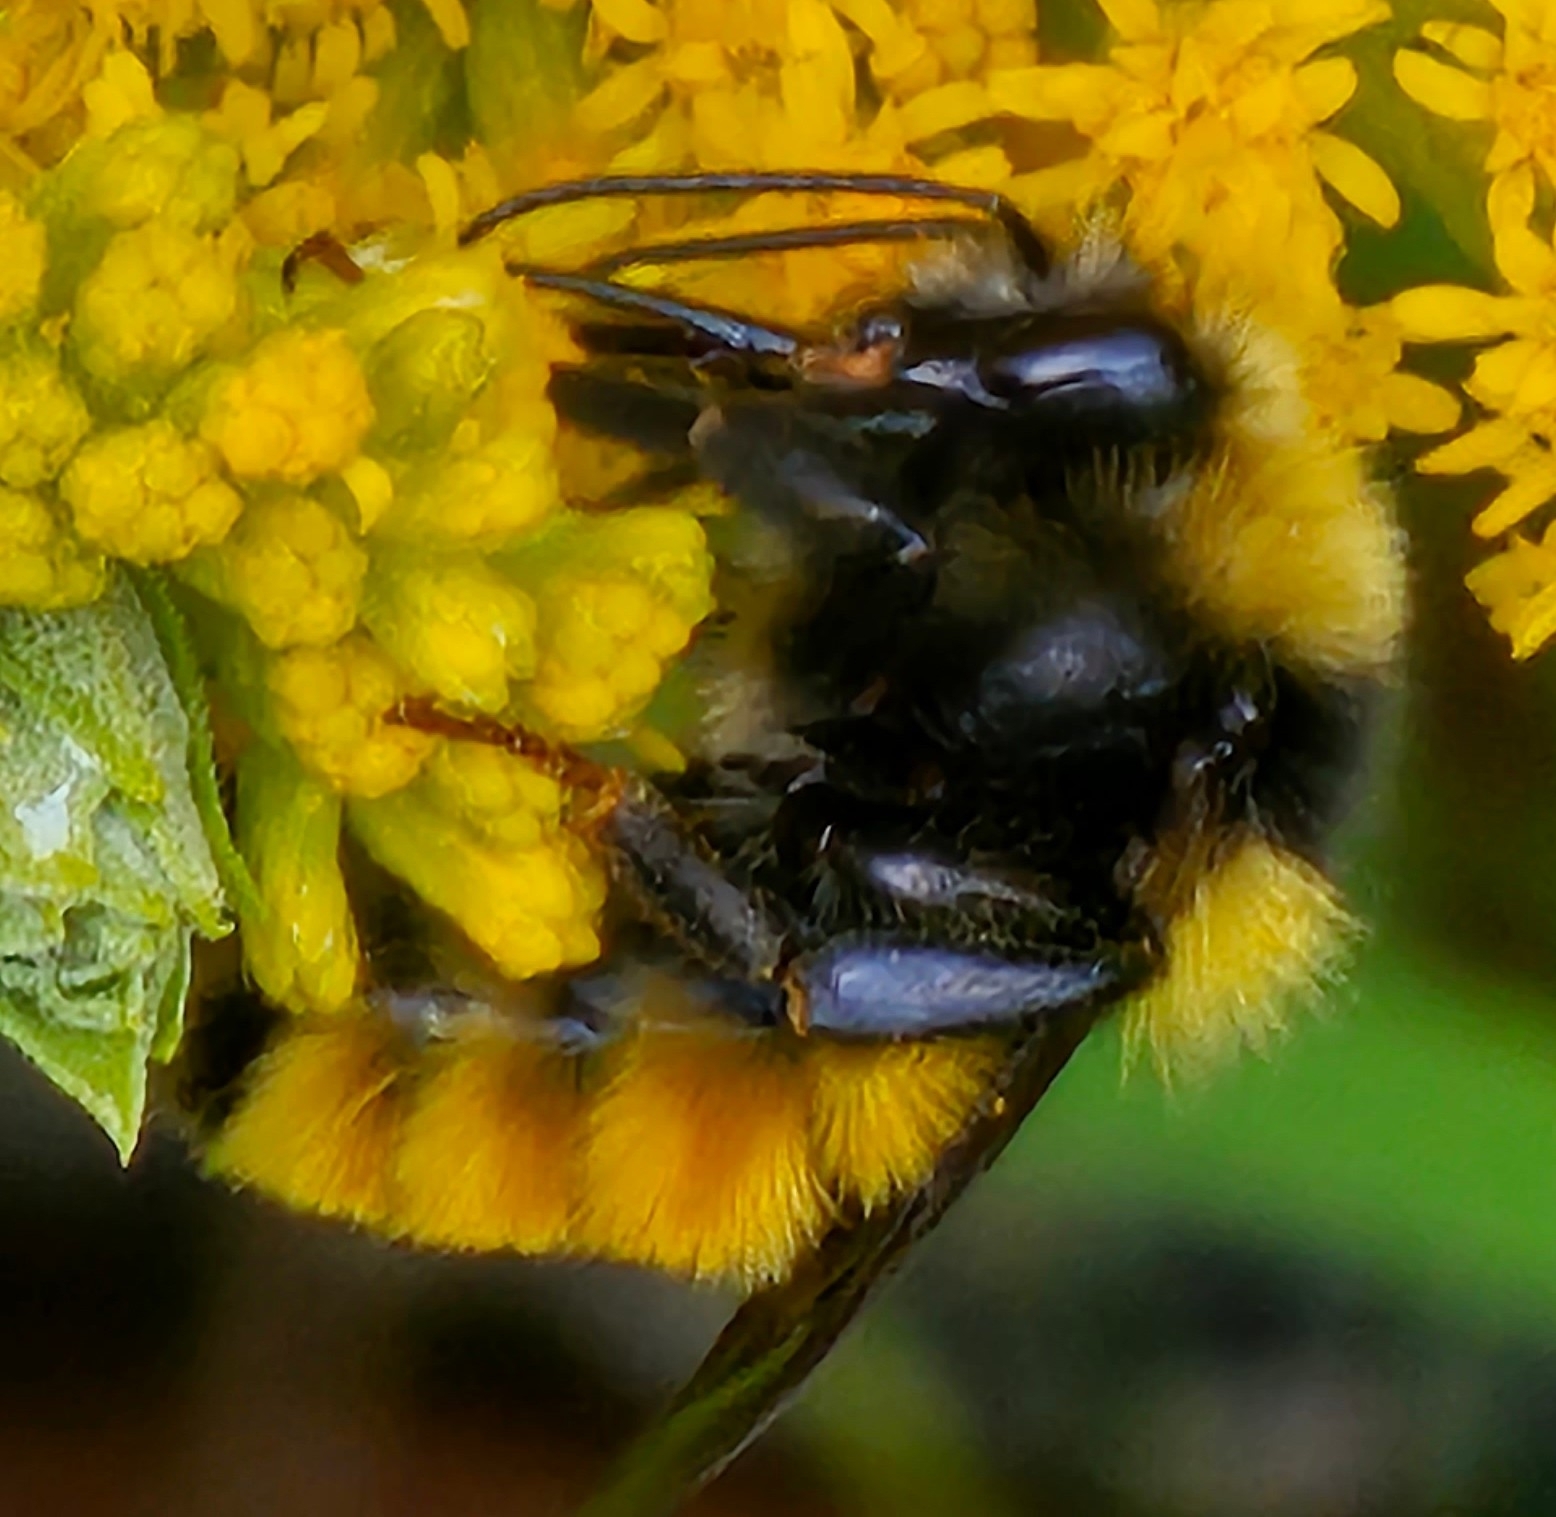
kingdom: Animalia
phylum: Arthropoda
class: Insecta
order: Hymenoptera
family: Apidae
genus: Bombus
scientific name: Bombus borealis
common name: Northern amber bumble bee
